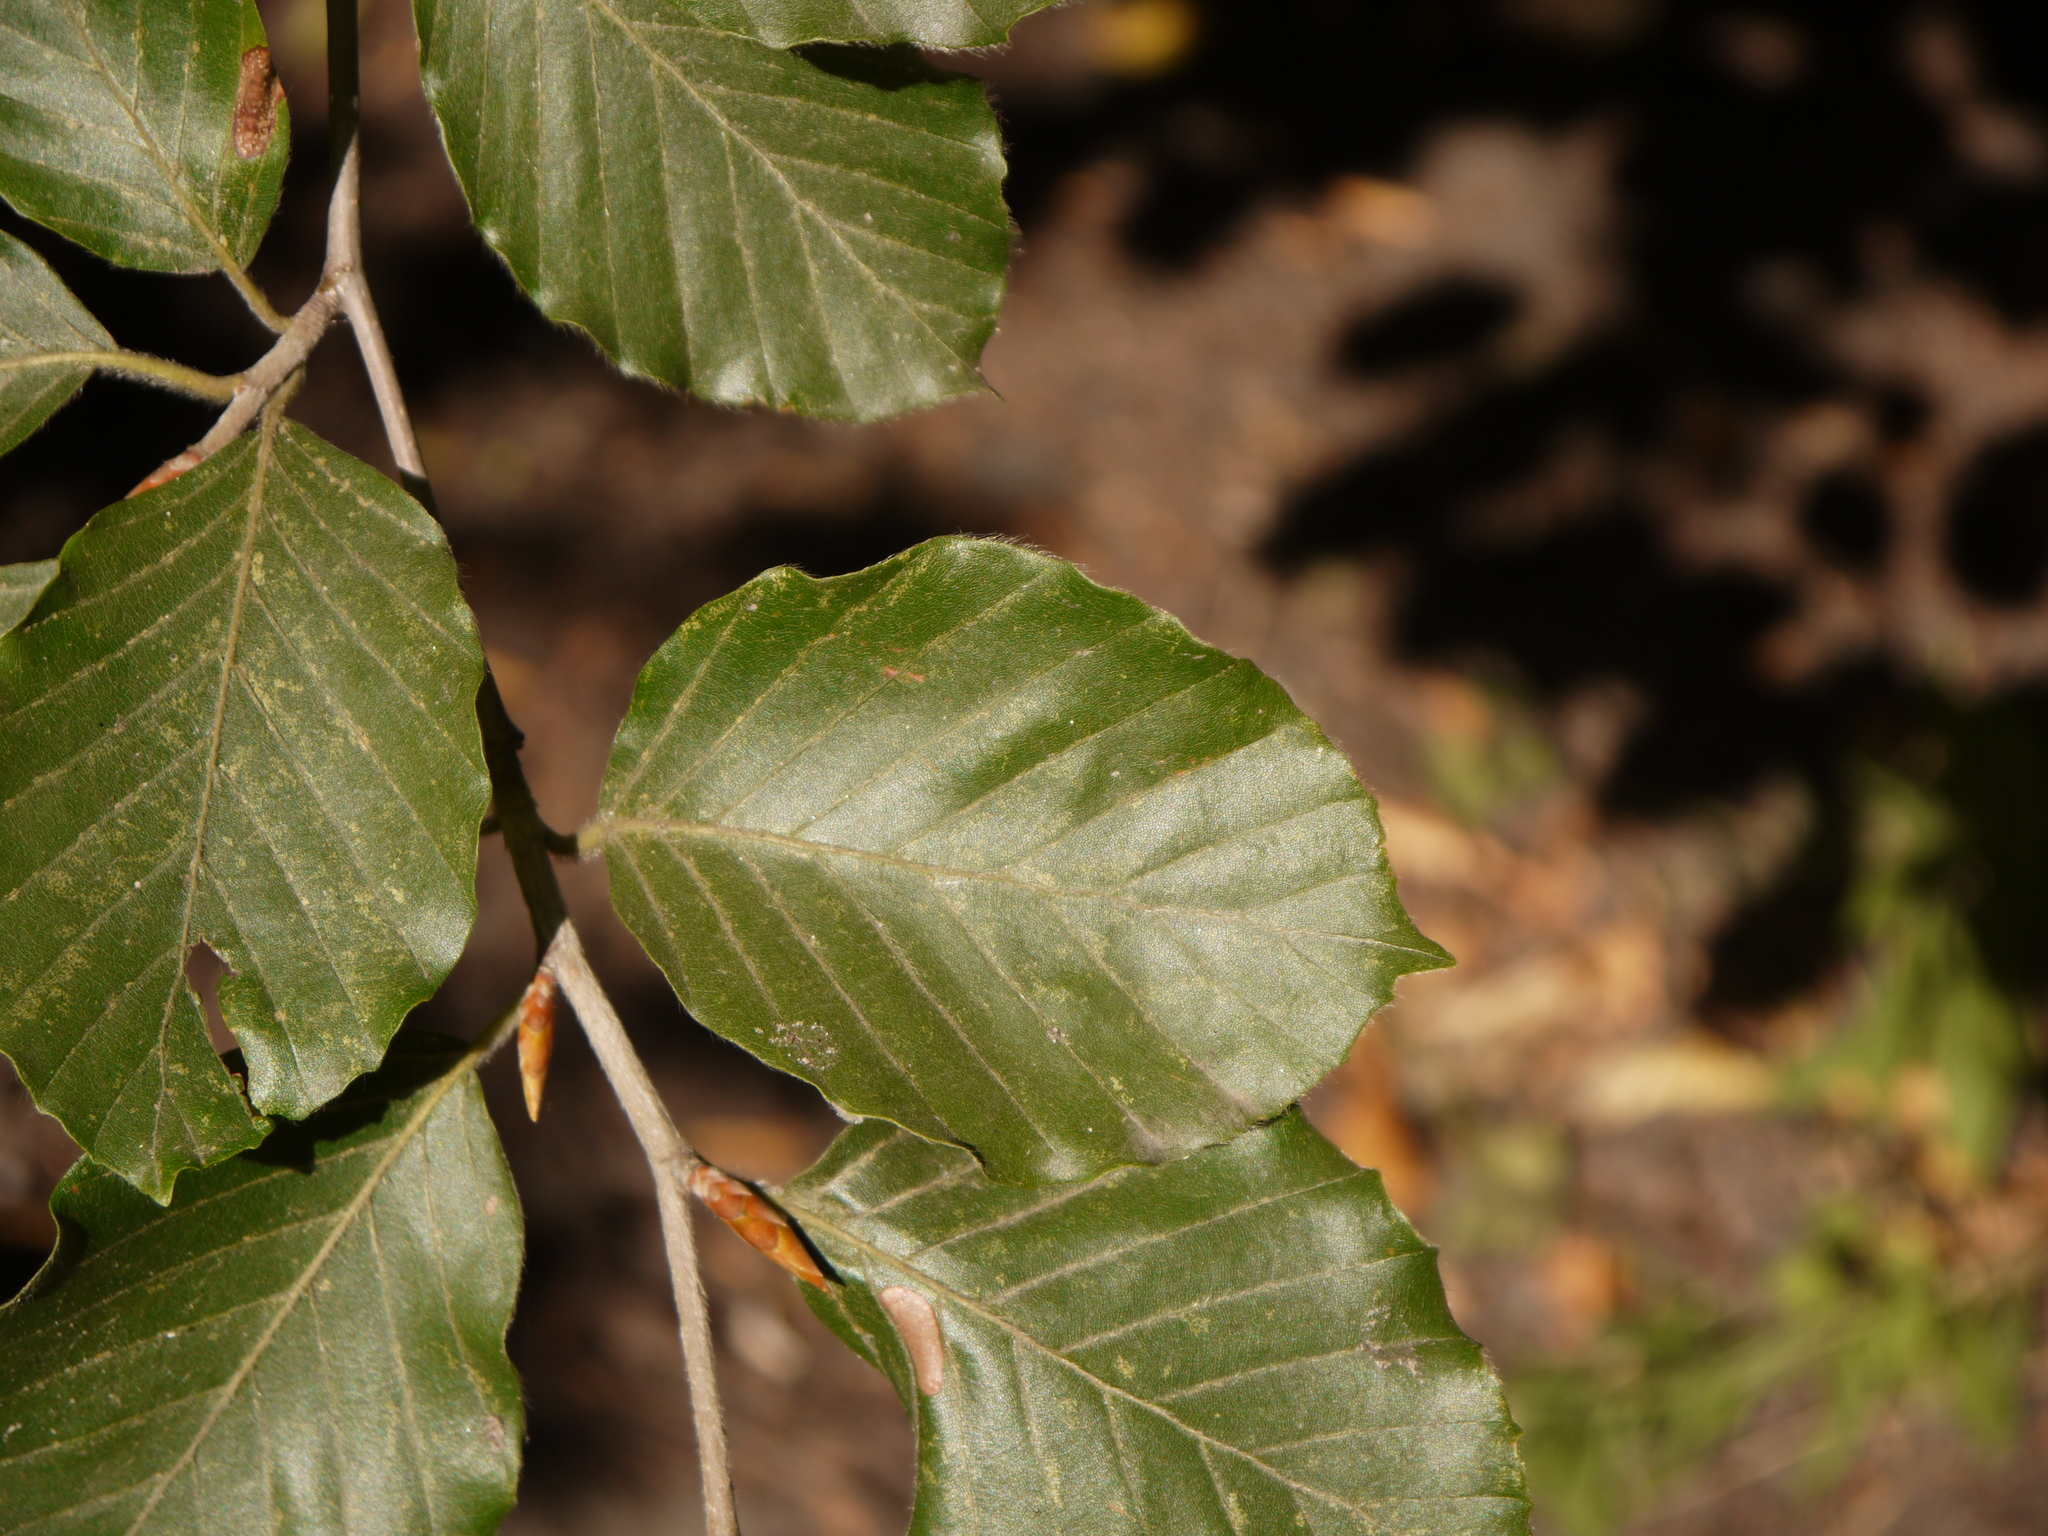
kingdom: Plantae
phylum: Tracheophyta
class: Magnoliopsida
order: Fagales
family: Fagaceae
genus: Fagus
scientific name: Fagus sylvatica
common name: Beech
